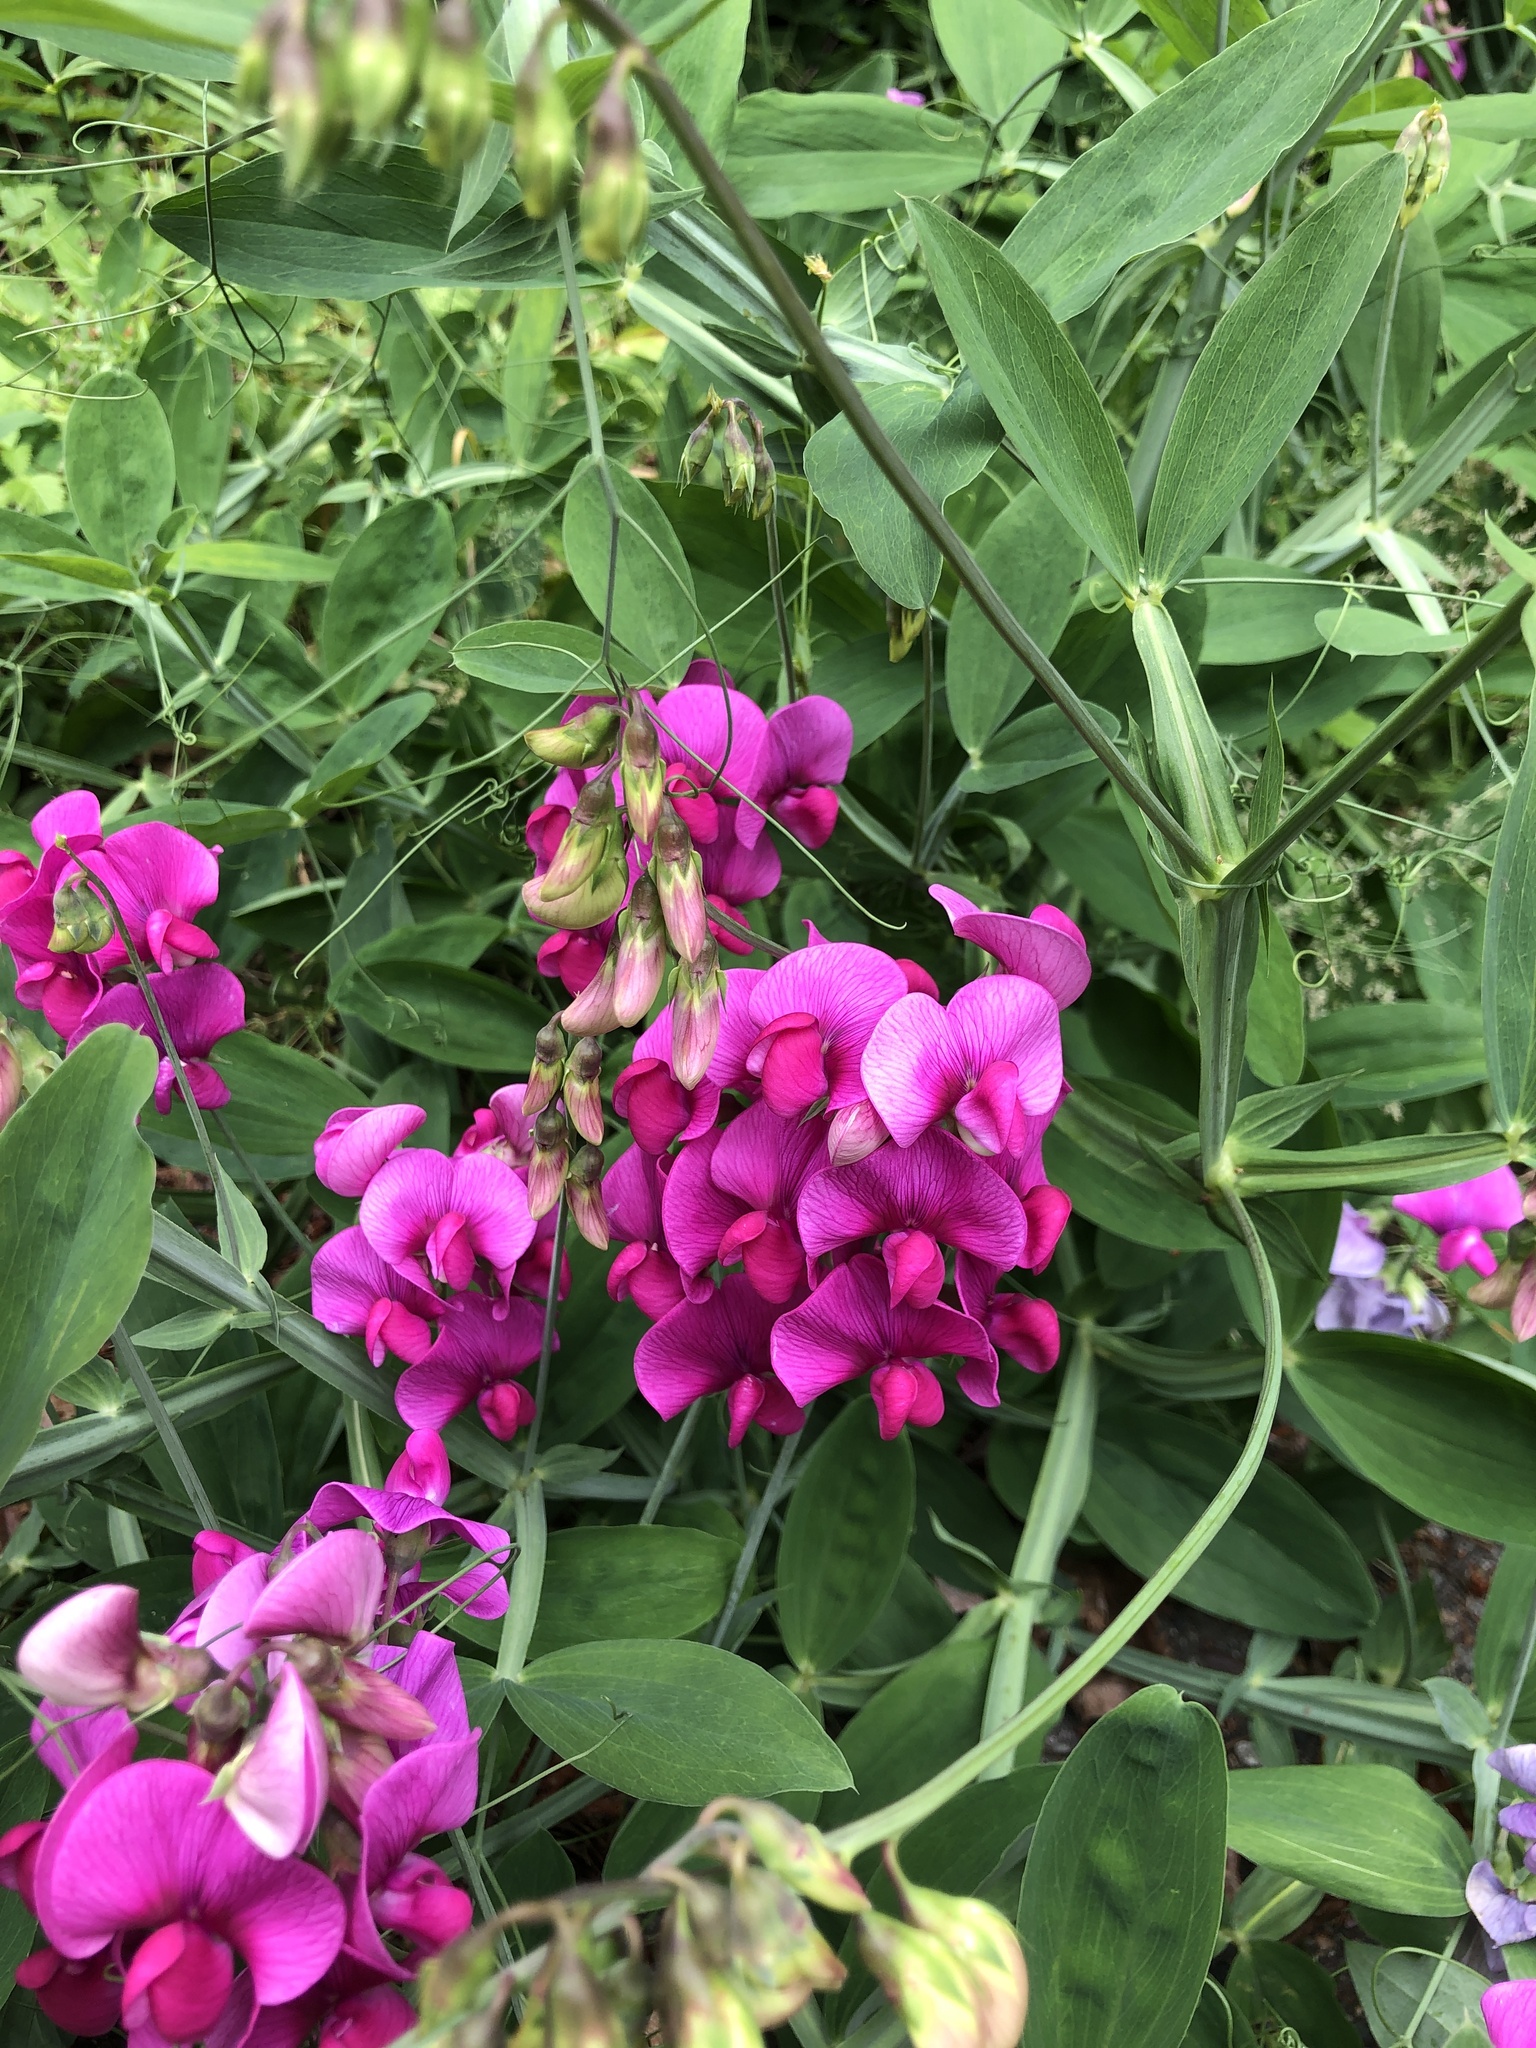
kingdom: Plantae
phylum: Tracheophyta
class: Magnoliopsida
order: Fabales
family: Fabaceae
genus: Lathyrus
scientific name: Lathyrus latifolius
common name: Perennial pea
